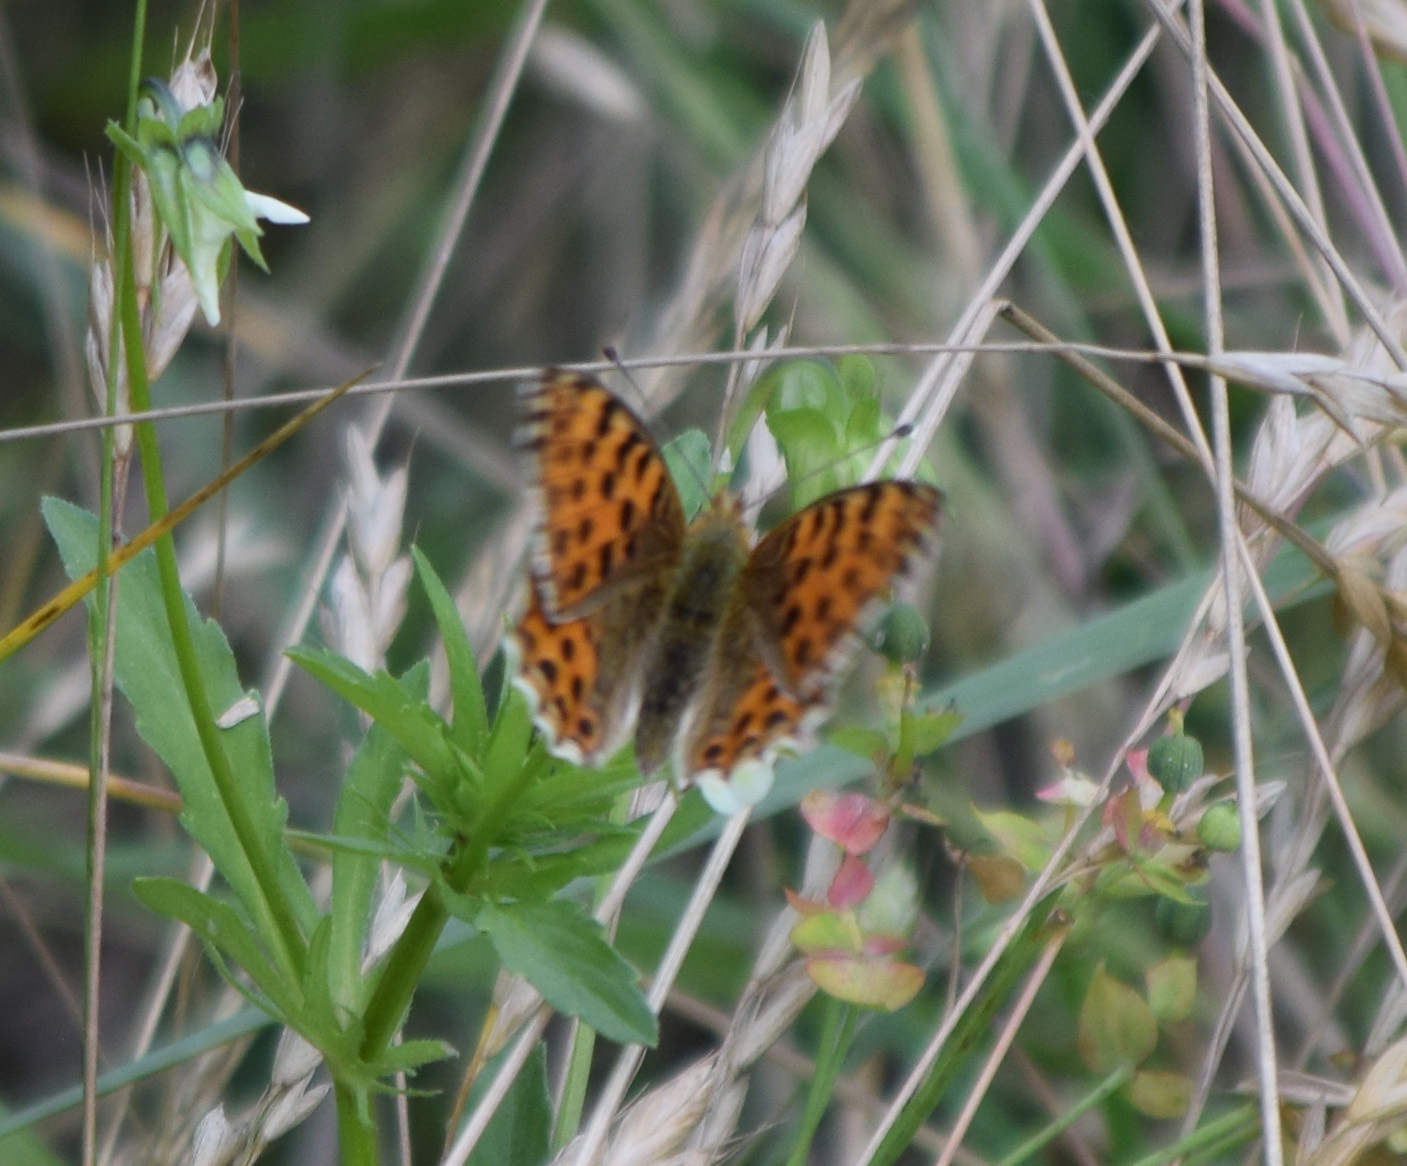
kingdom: Animalia
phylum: Arthropoda
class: Insecta
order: Lepidoptera
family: Nymphalidae
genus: Issoria
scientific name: Issoria lathonia
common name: Queen of spain fritillary
